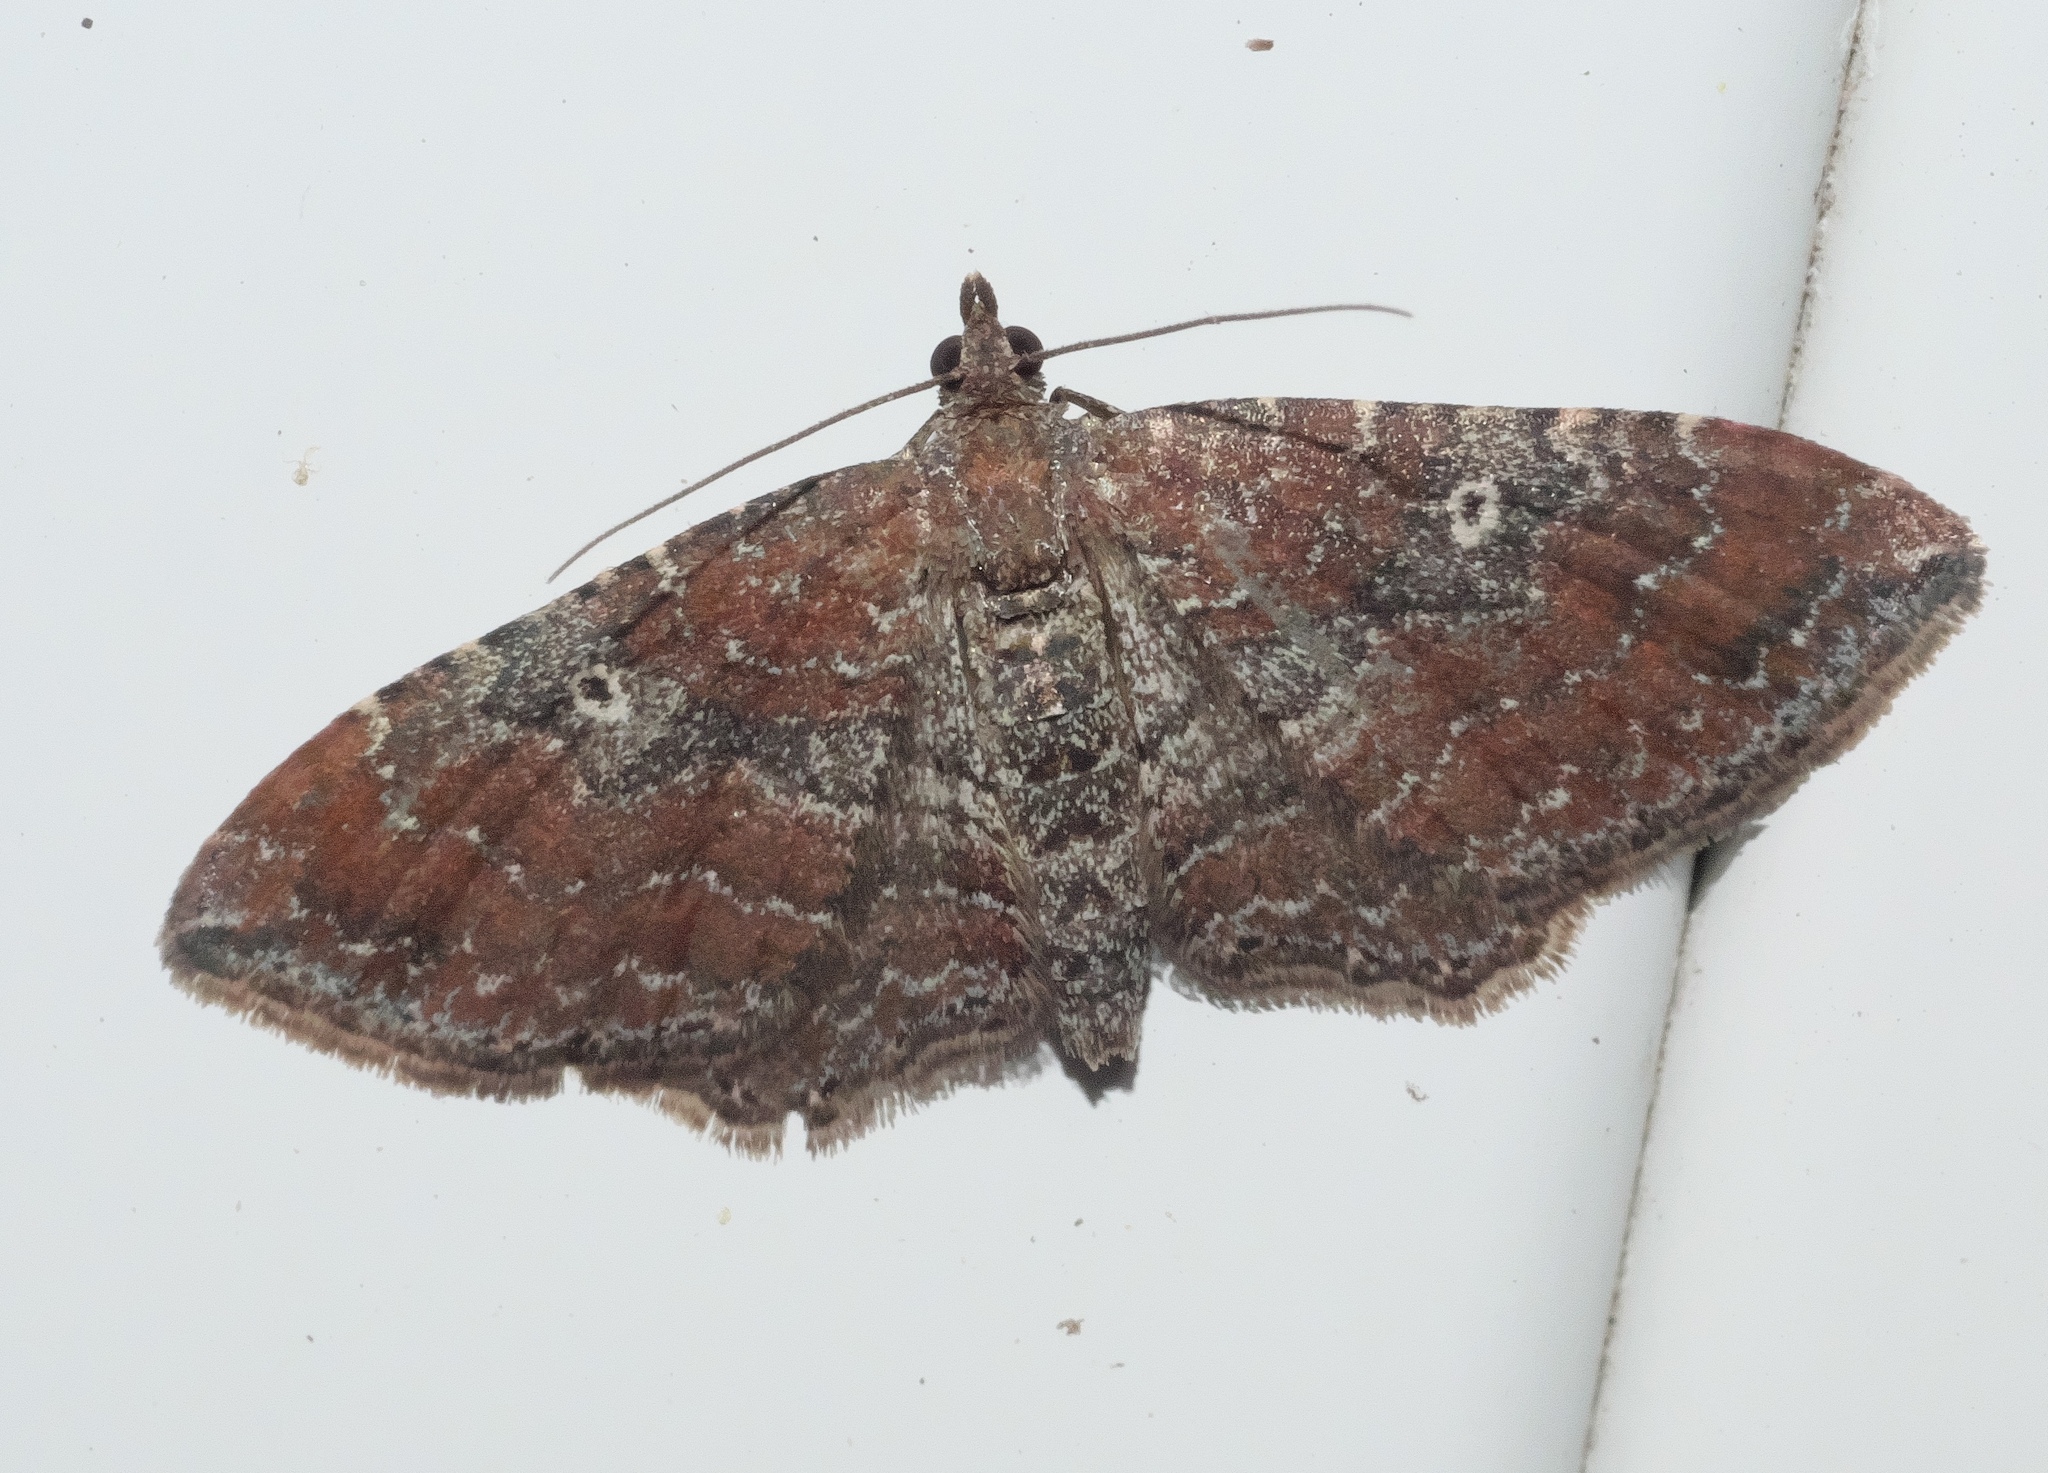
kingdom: Animalia
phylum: Arthropoda
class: Insecta
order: Lepidoptera
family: Geometridae
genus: Orthonama
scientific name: Orthonama obstipata
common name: The gem
